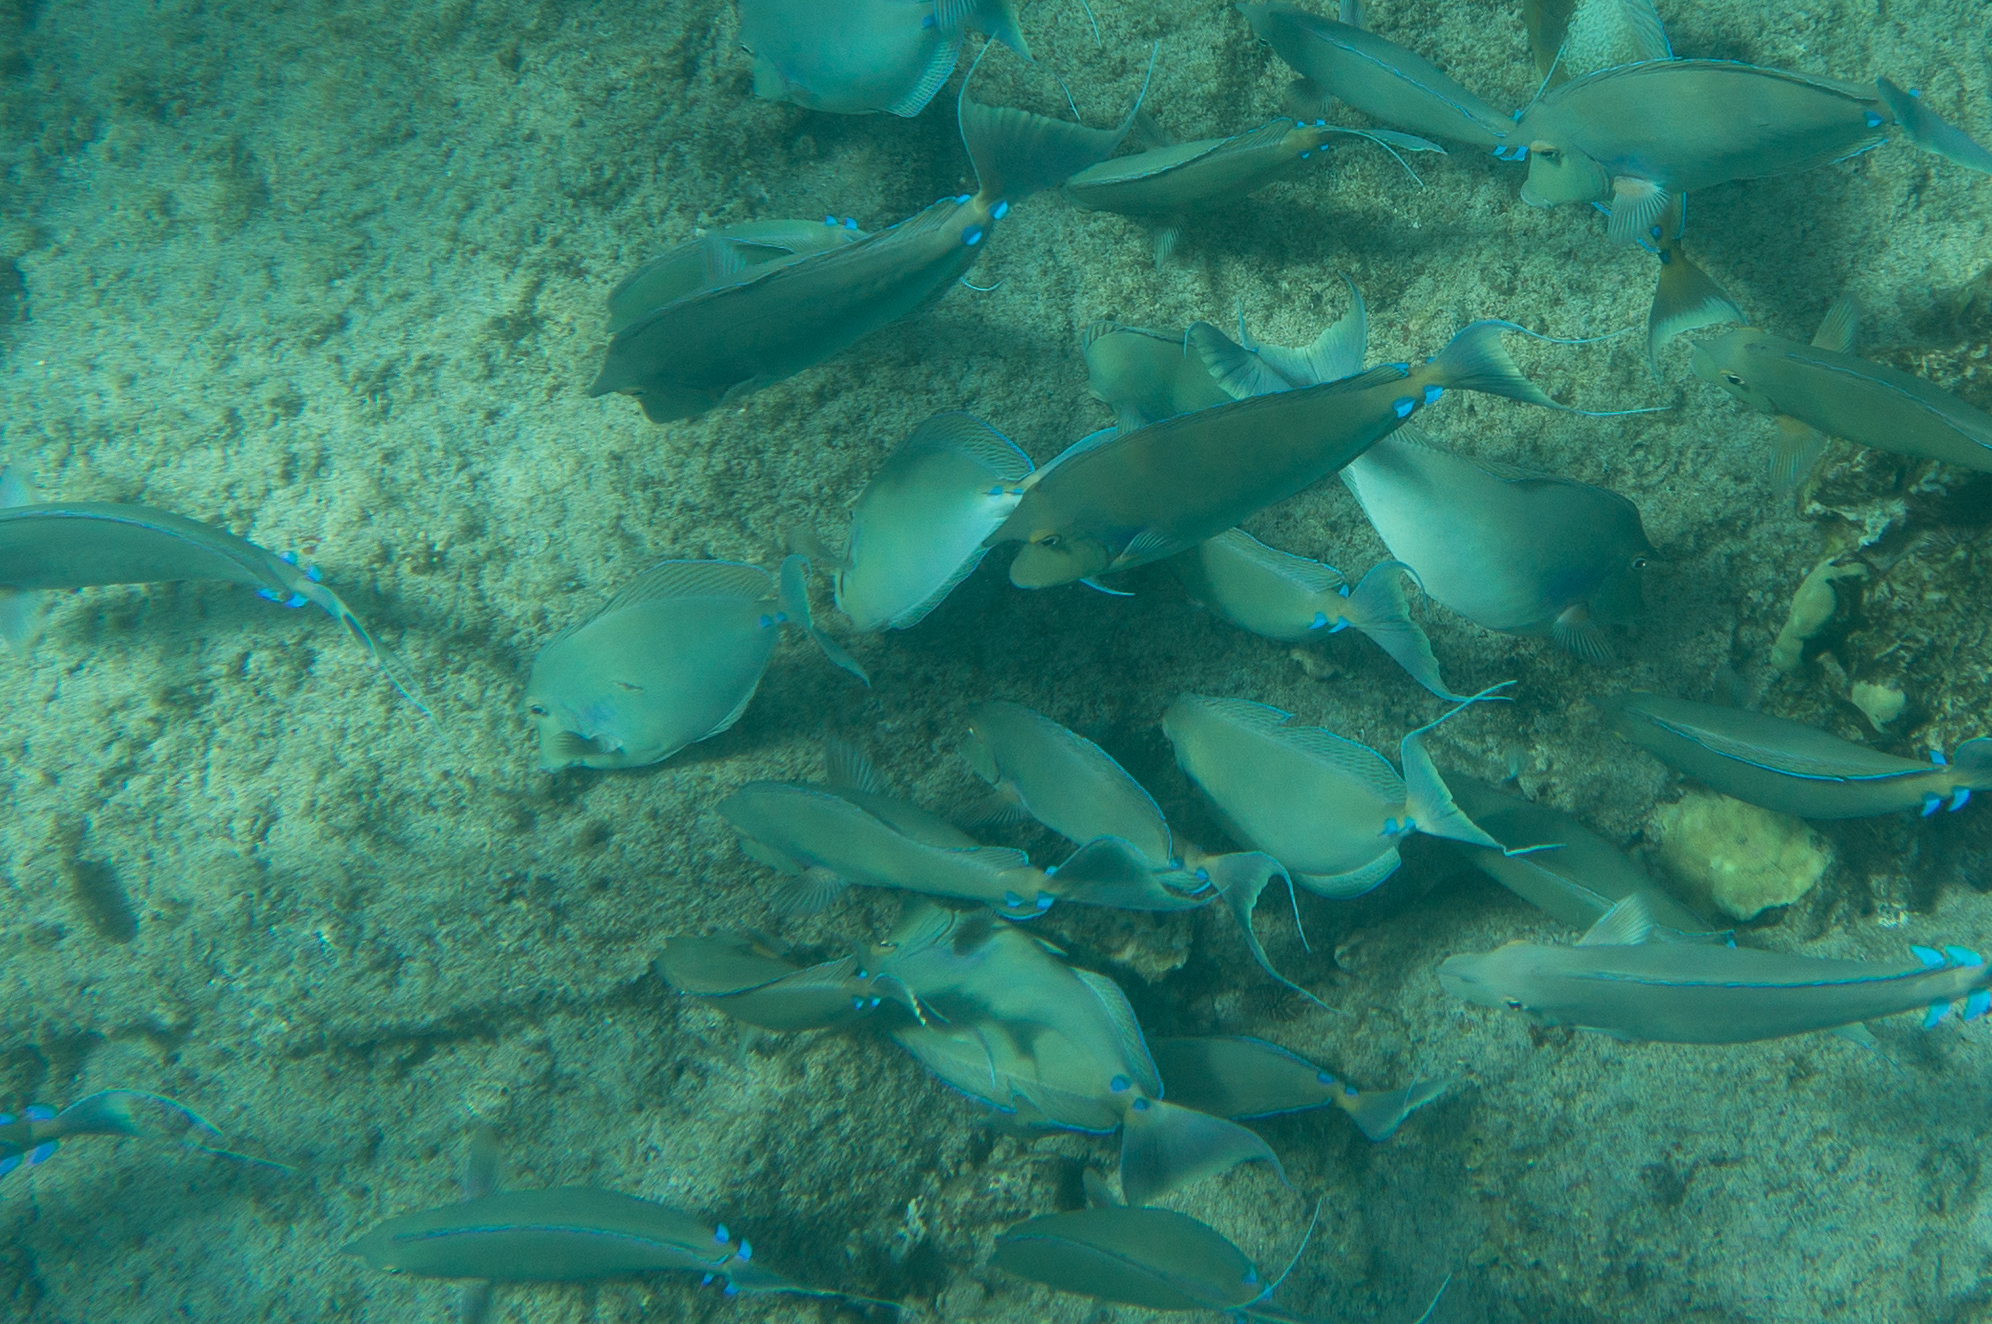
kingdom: Animalia
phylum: Chordata
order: Perciformes
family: Acanthuridae
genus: Naso
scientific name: Naso unicornis
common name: Bluespine unicornfish
